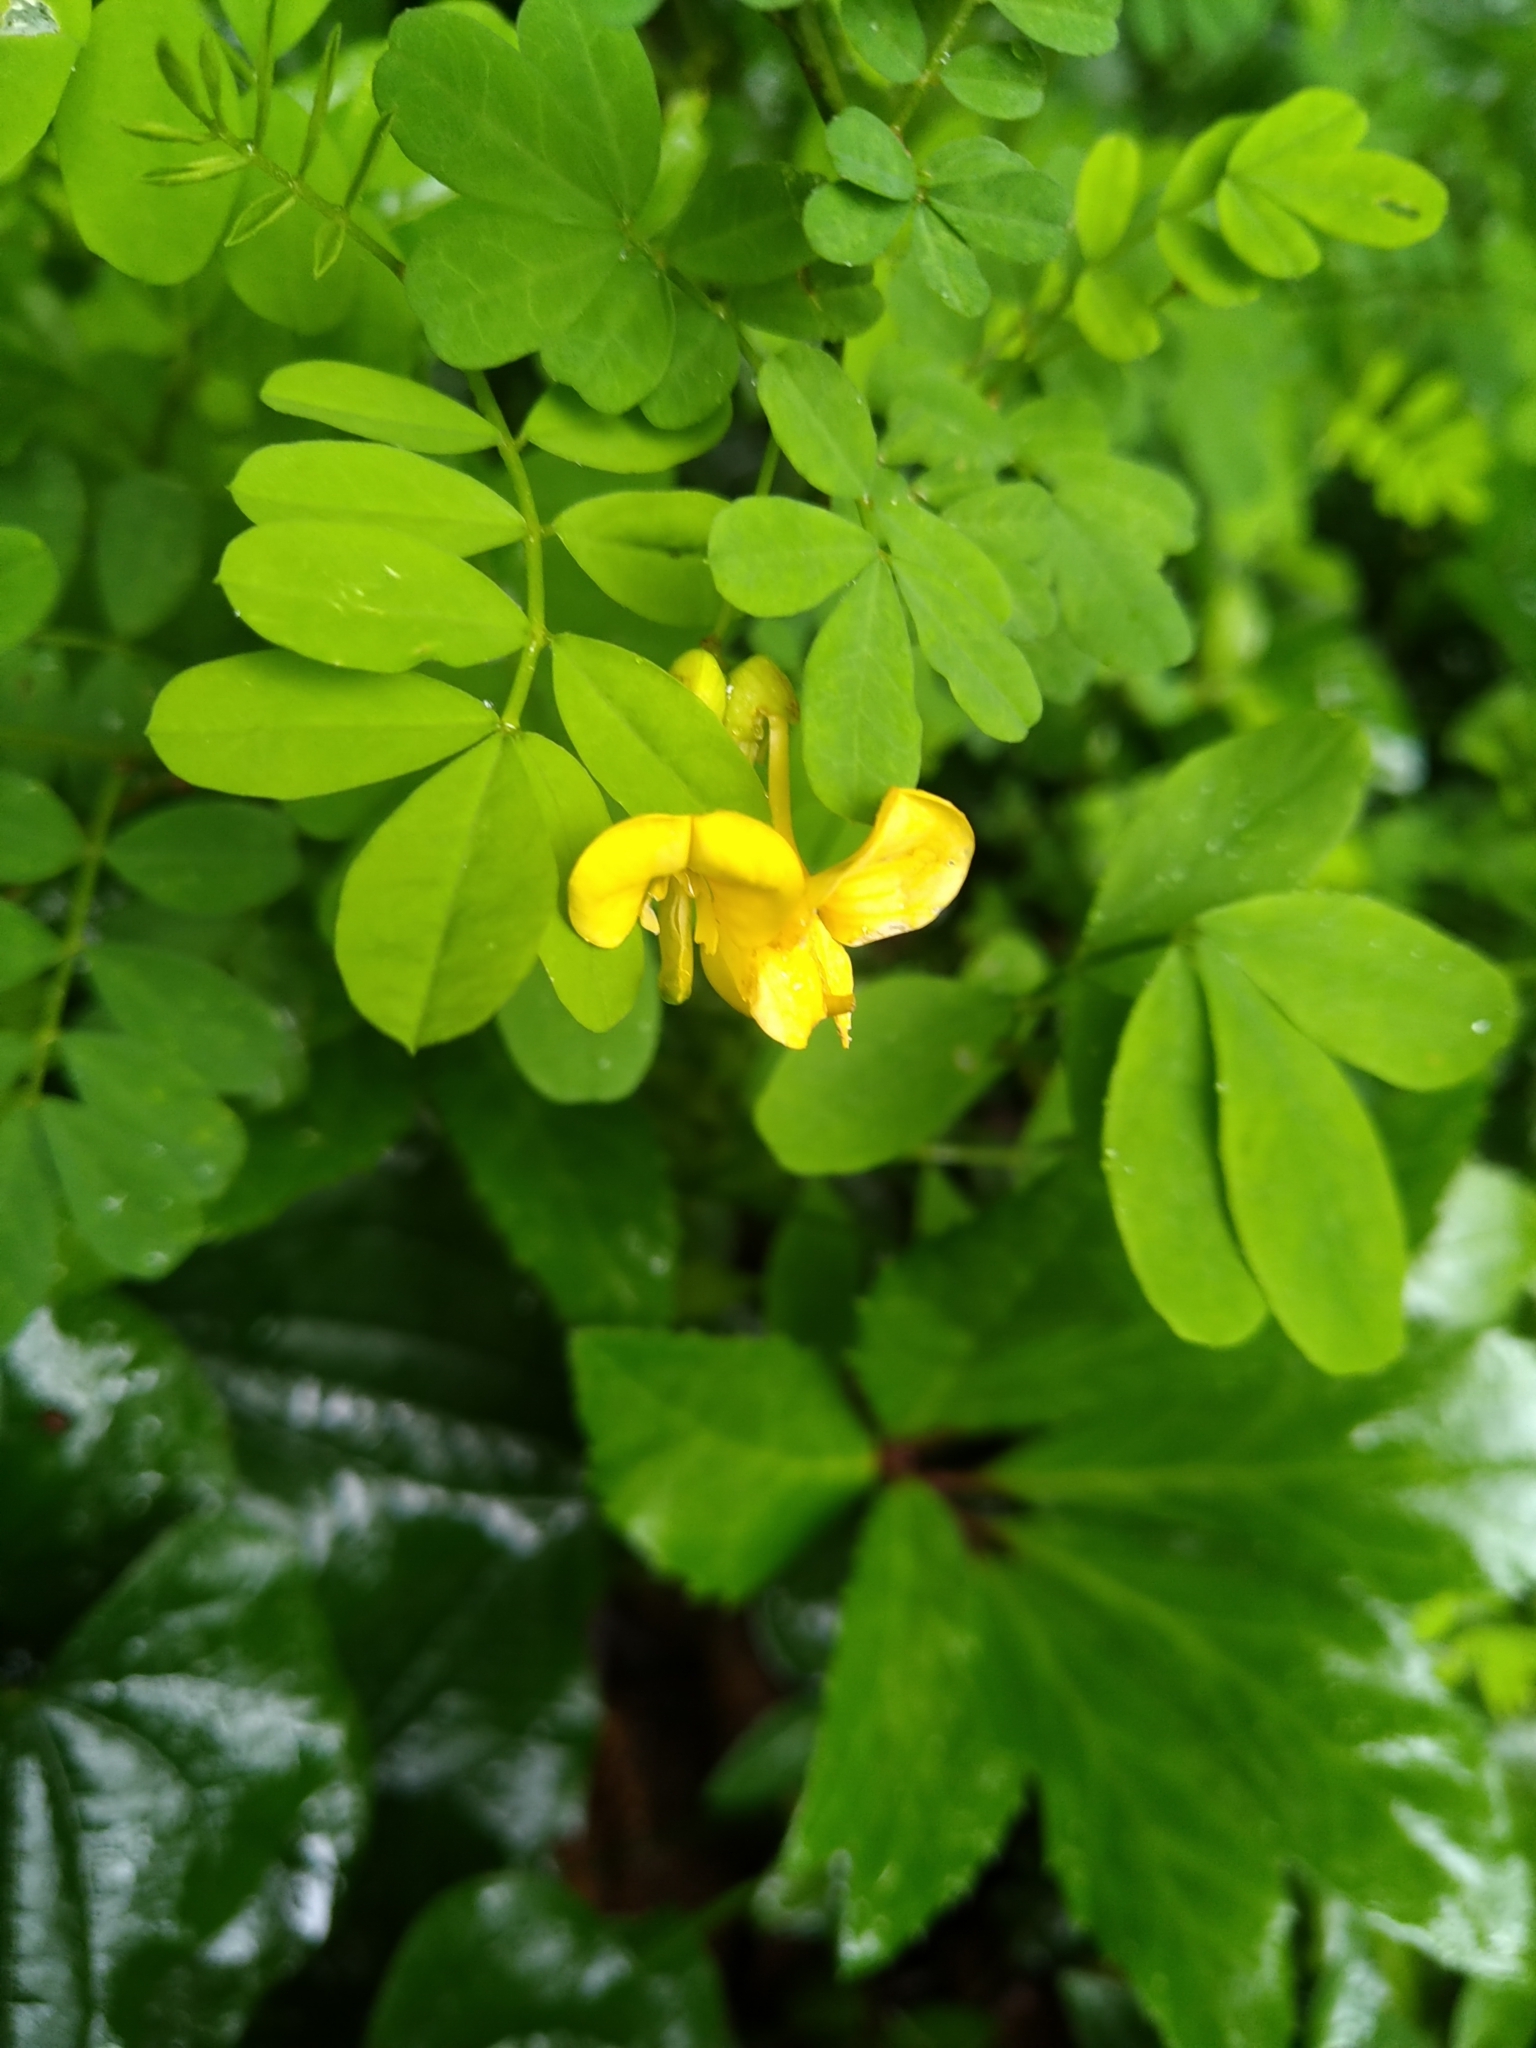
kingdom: Plantae
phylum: Tracheophyta
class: Magnoliopsida
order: Fabales
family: Fabaceae
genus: Hippocrepis
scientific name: Hippocrepis emerus
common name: Scorpion senna
